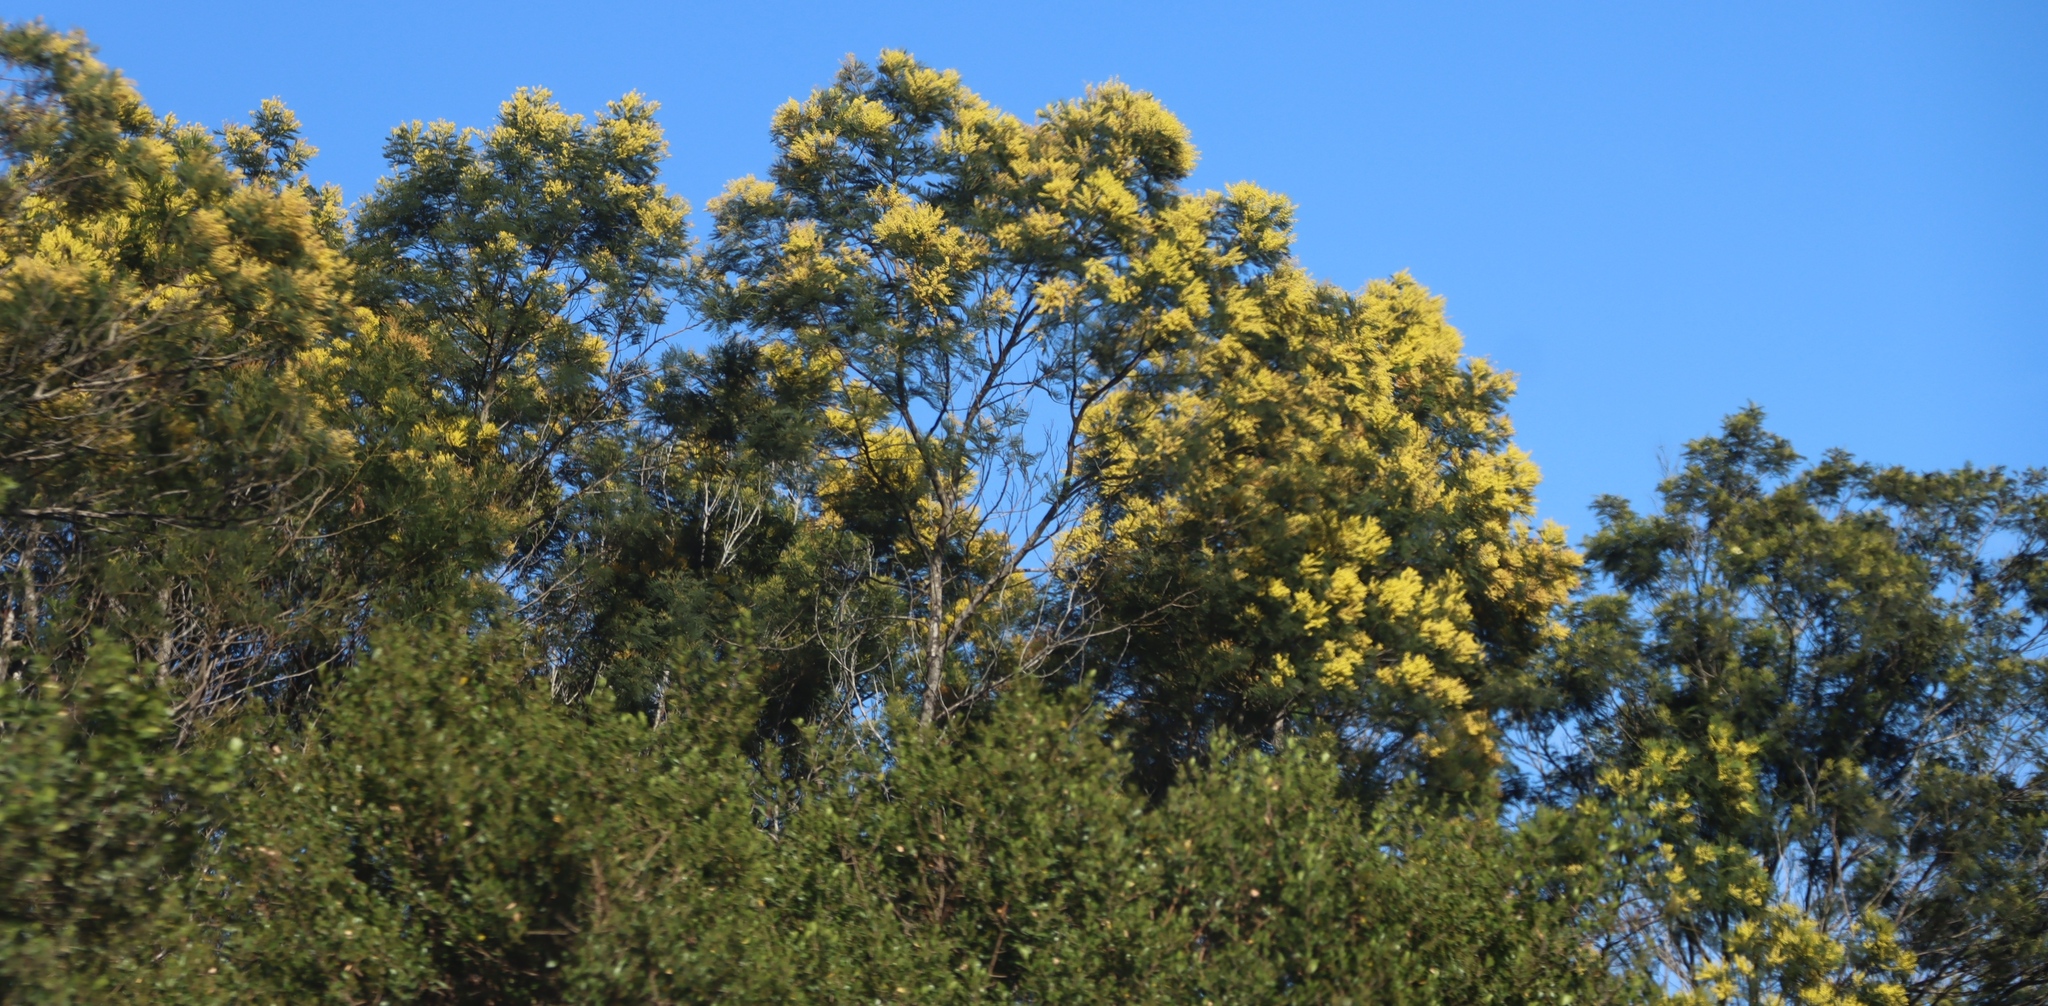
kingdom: Plantae
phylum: Tracheophyta
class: Magnoliopsida
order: Fabales
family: Fabaceae
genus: Acacia
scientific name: Acacia mearnsii
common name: Black wattle
